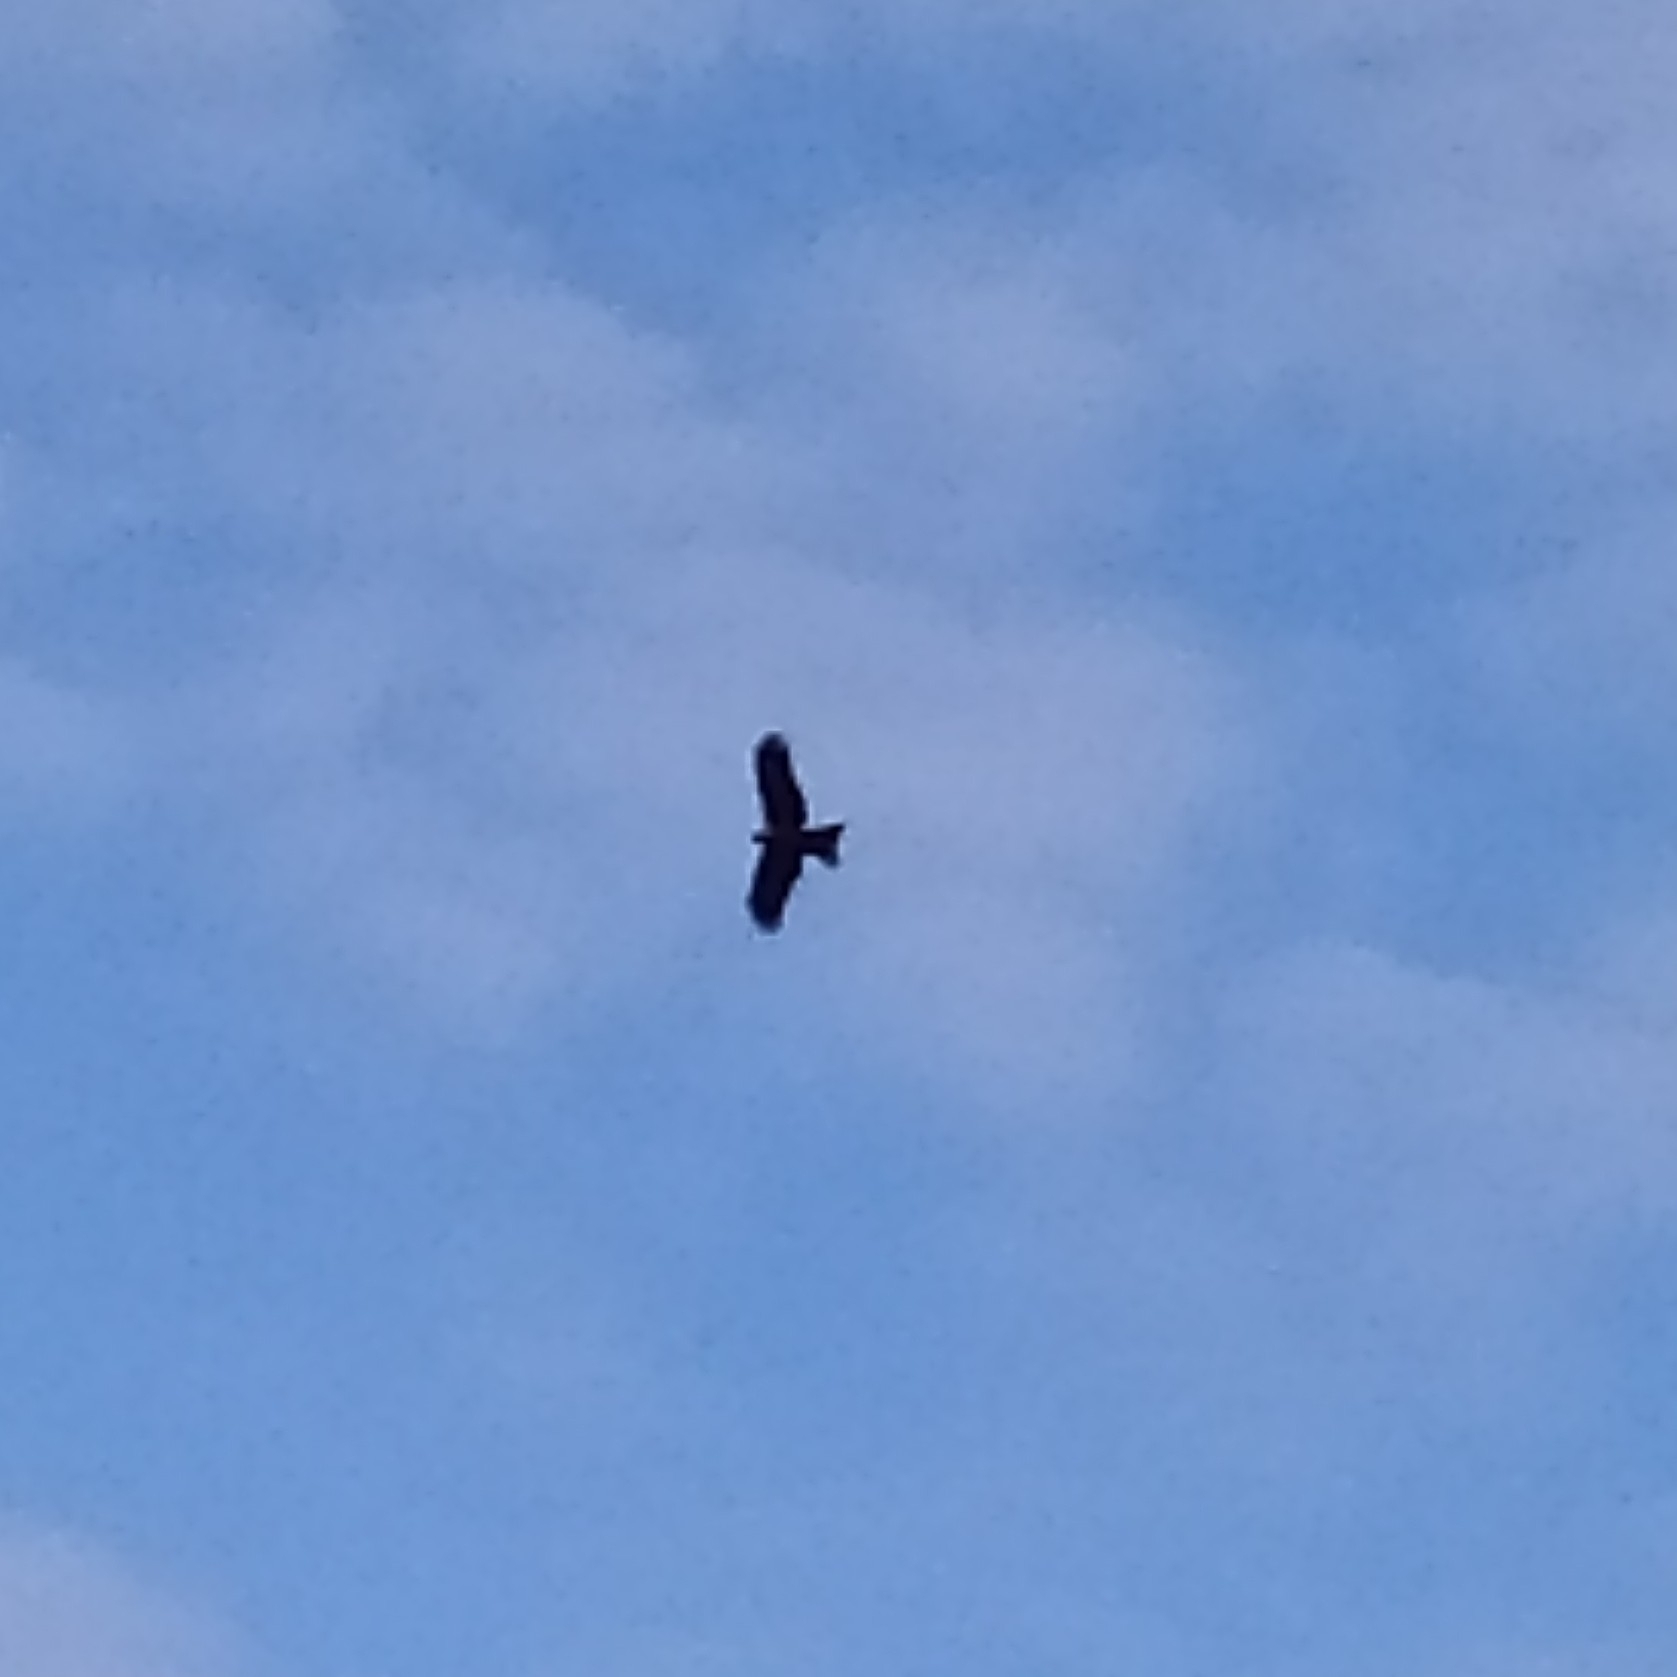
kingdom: Animalia
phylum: Chordata
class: Aves
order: Accipitriformes
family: Accipitridae
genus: Milvus
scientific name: Milvus migrans
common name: Black kite
